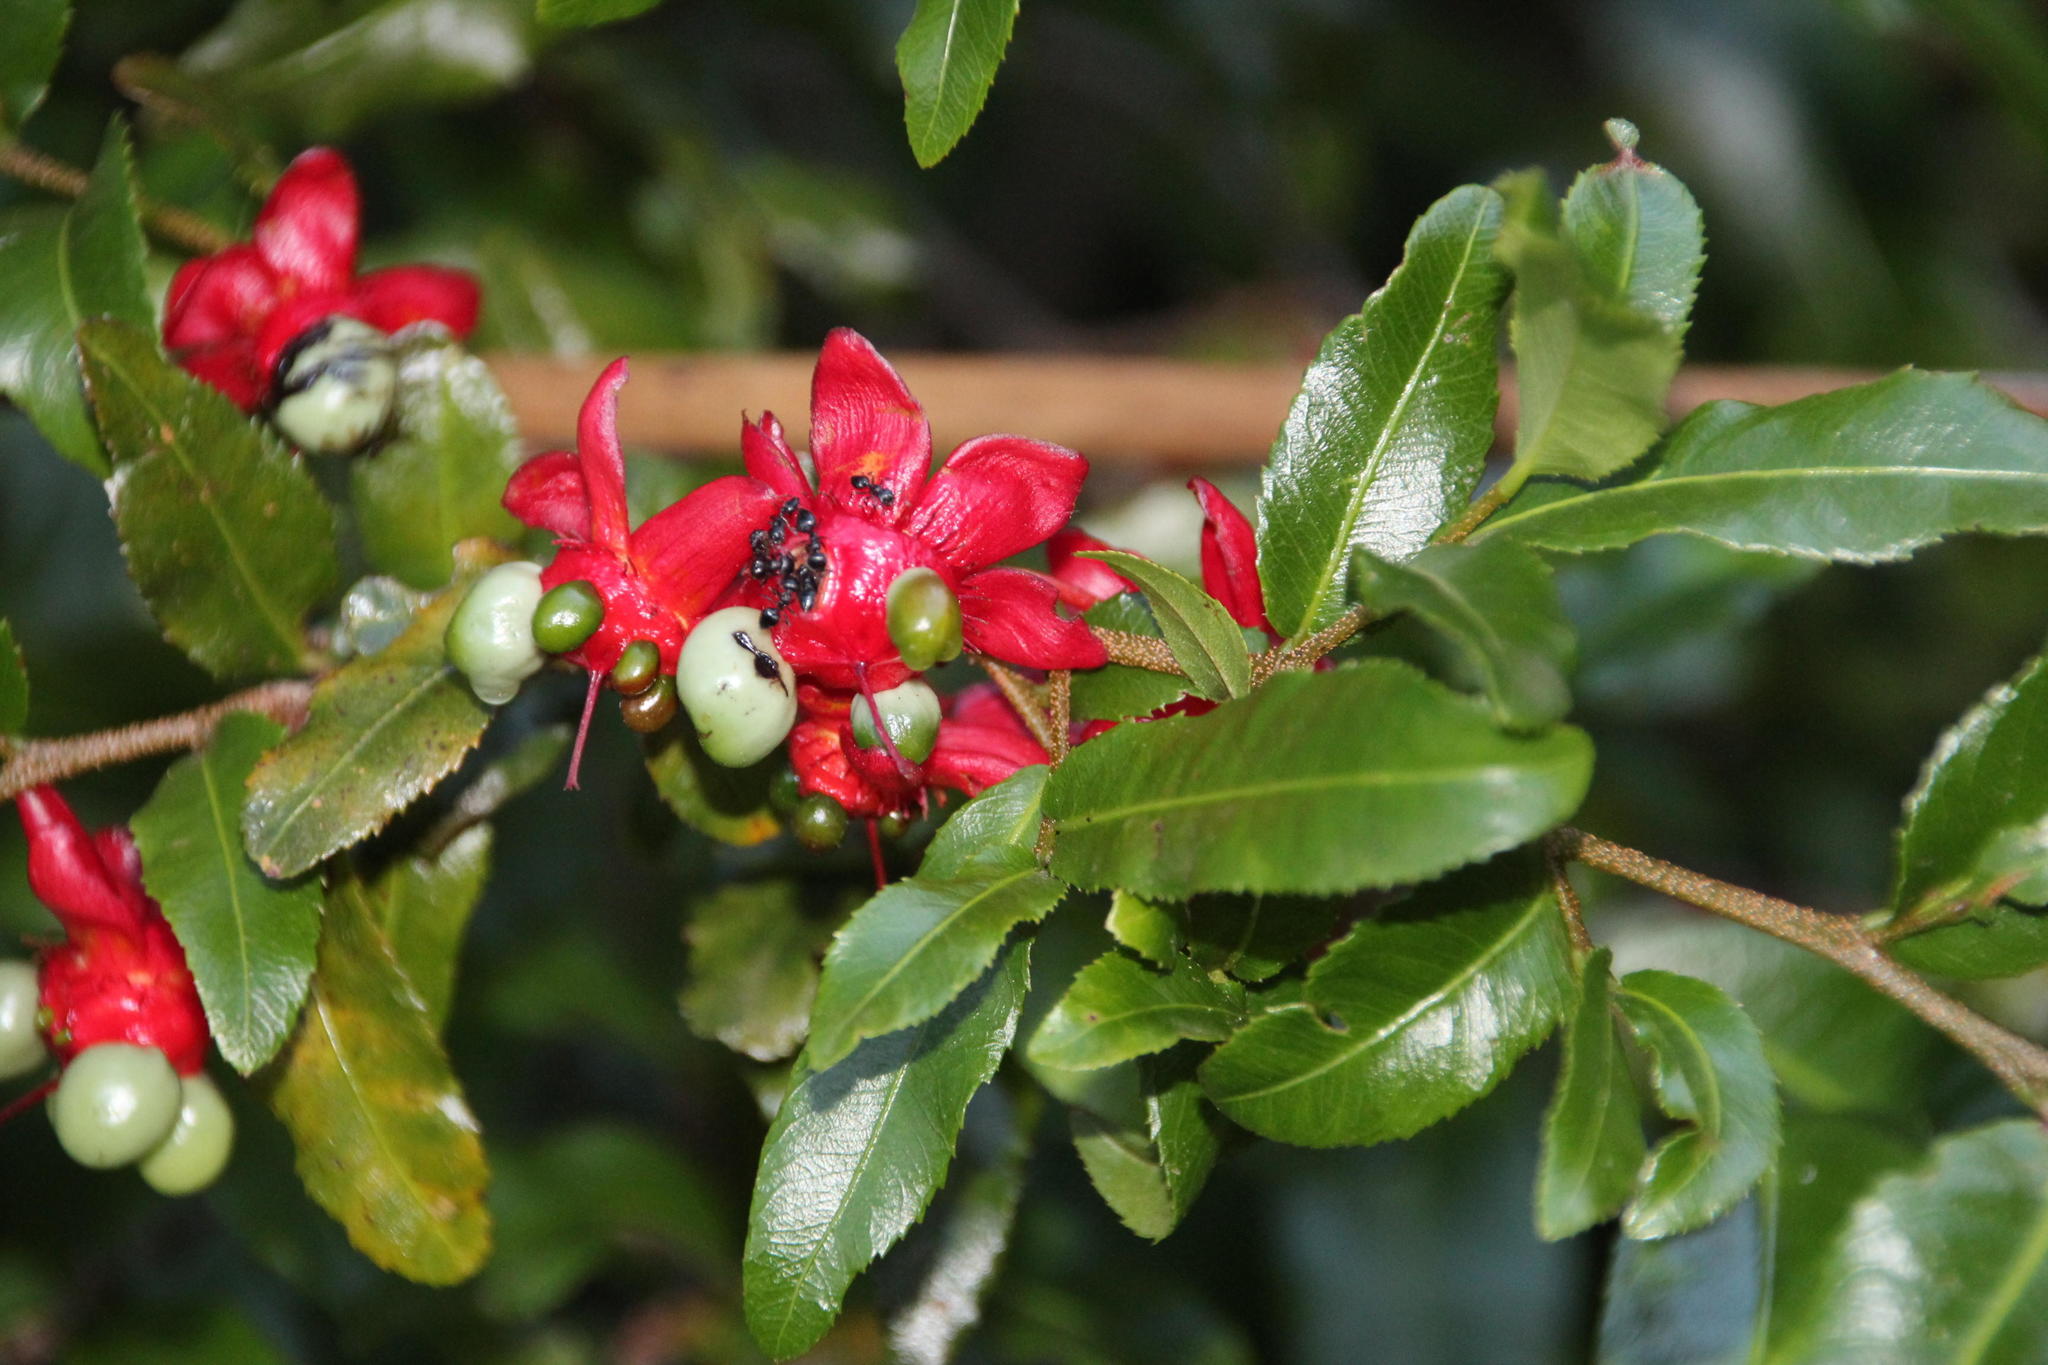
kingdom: Animalia
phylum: Arthropoda
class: Insecta
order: Hymenoptera
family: Formicidae
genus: Crematogaster
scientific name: Crematogaster peringueyi
